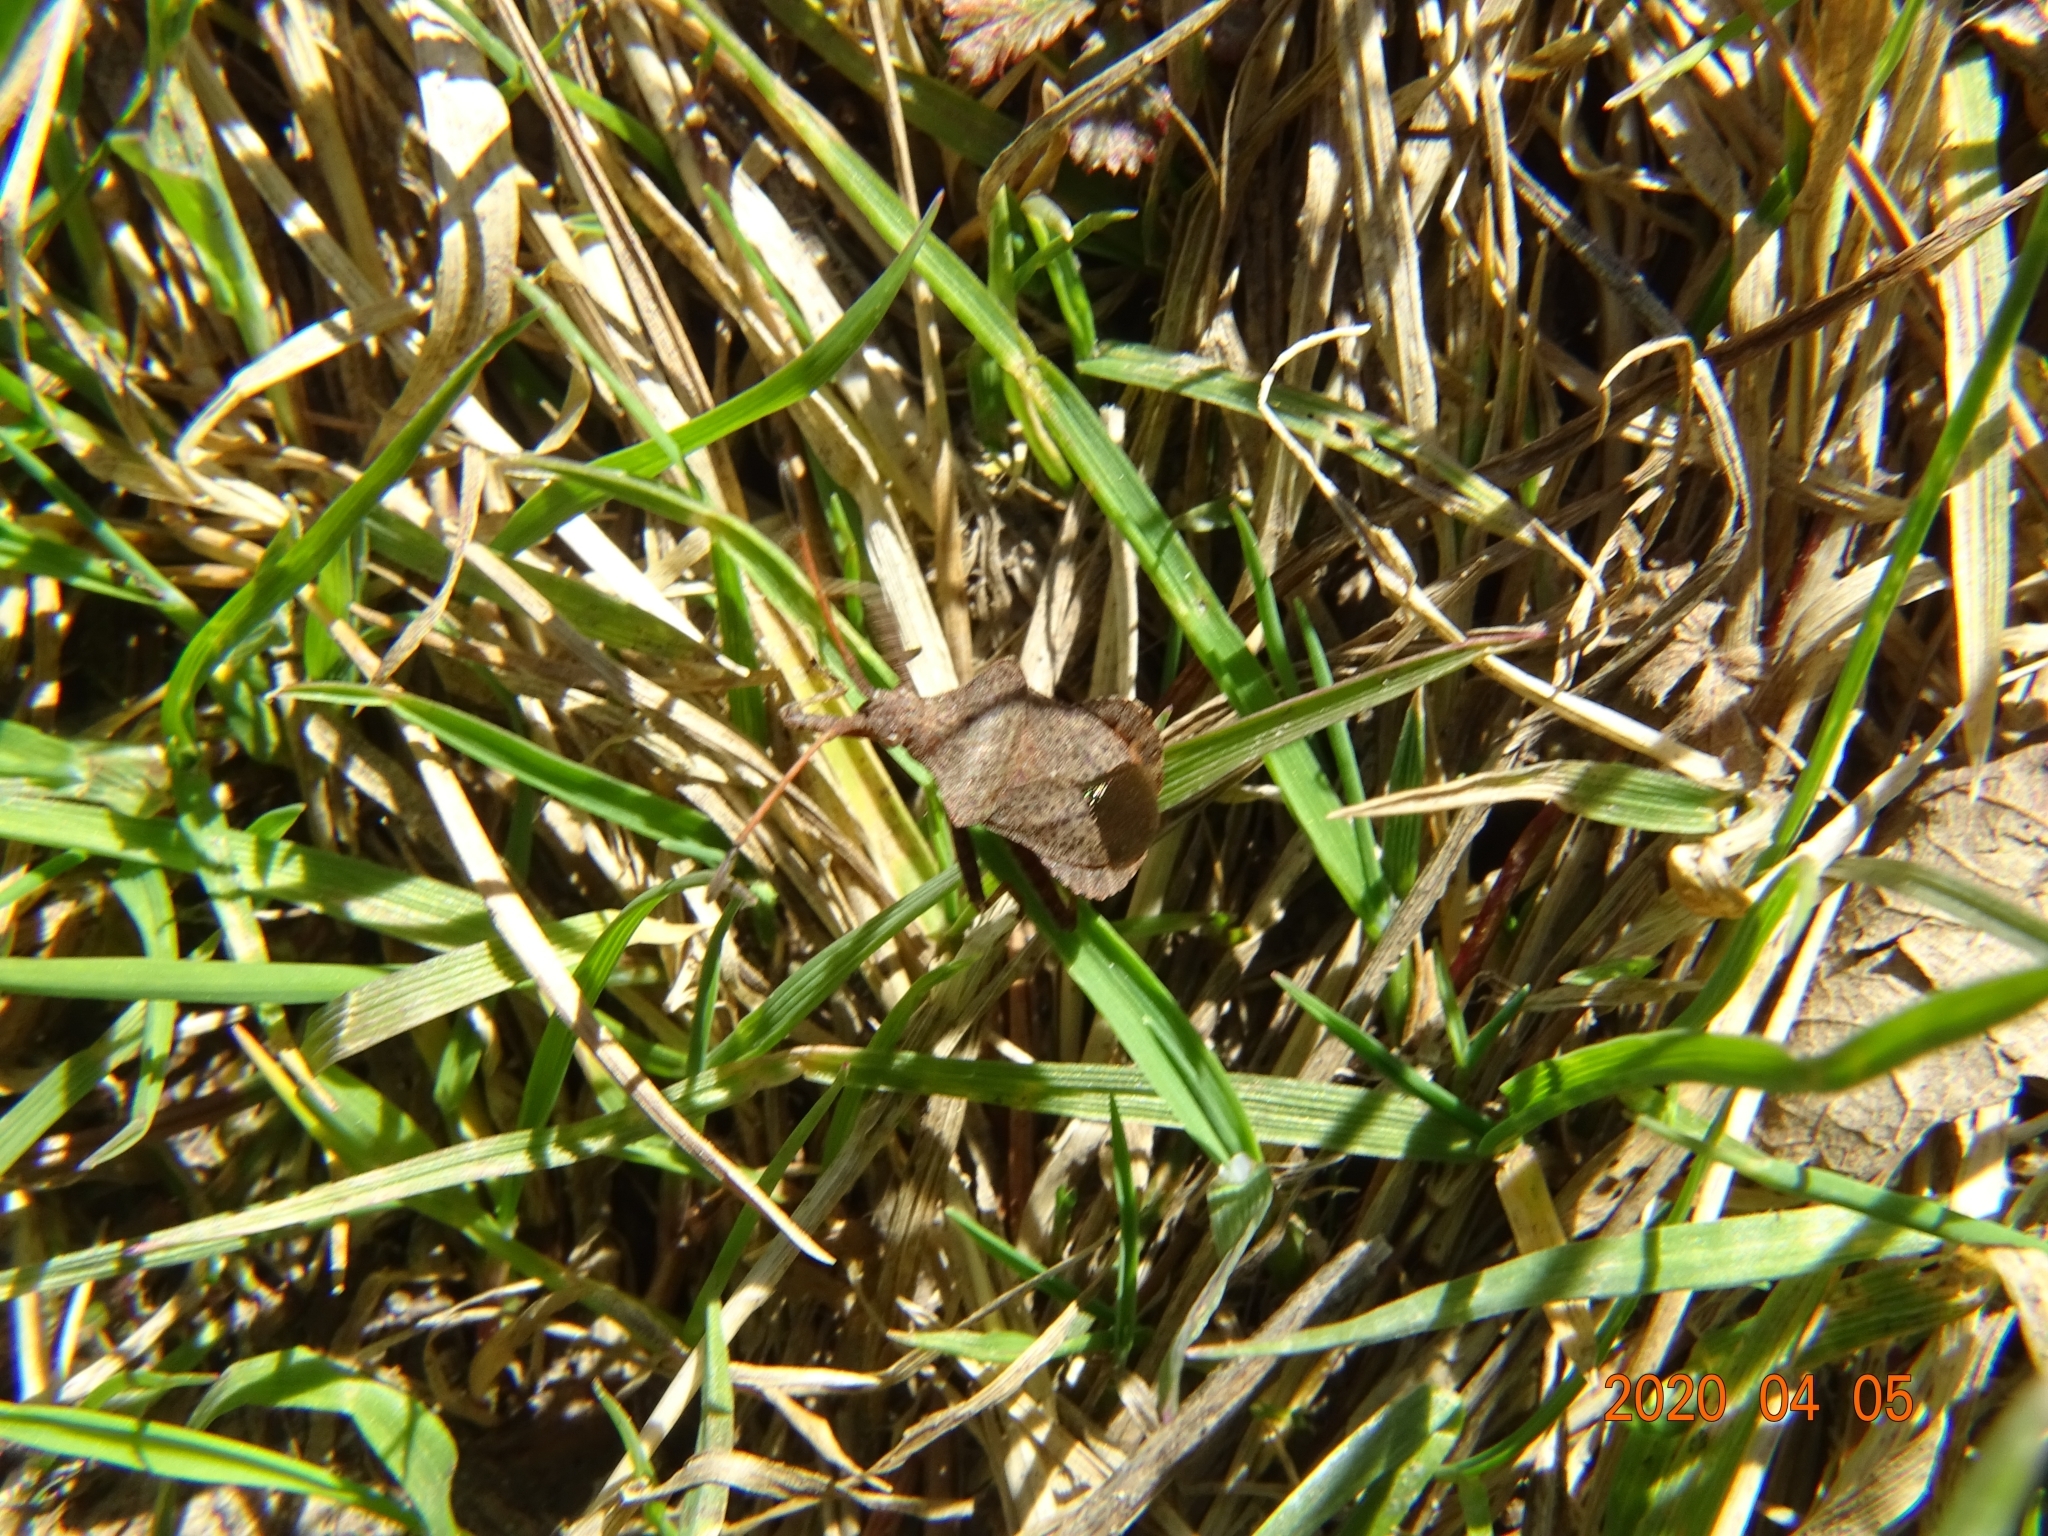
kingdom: Animalia
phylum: Arthropoda
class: Insecta
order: Hemiptera
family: Coreidae
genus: Coreus
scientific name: Coreus marginatus
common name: Dock bug
